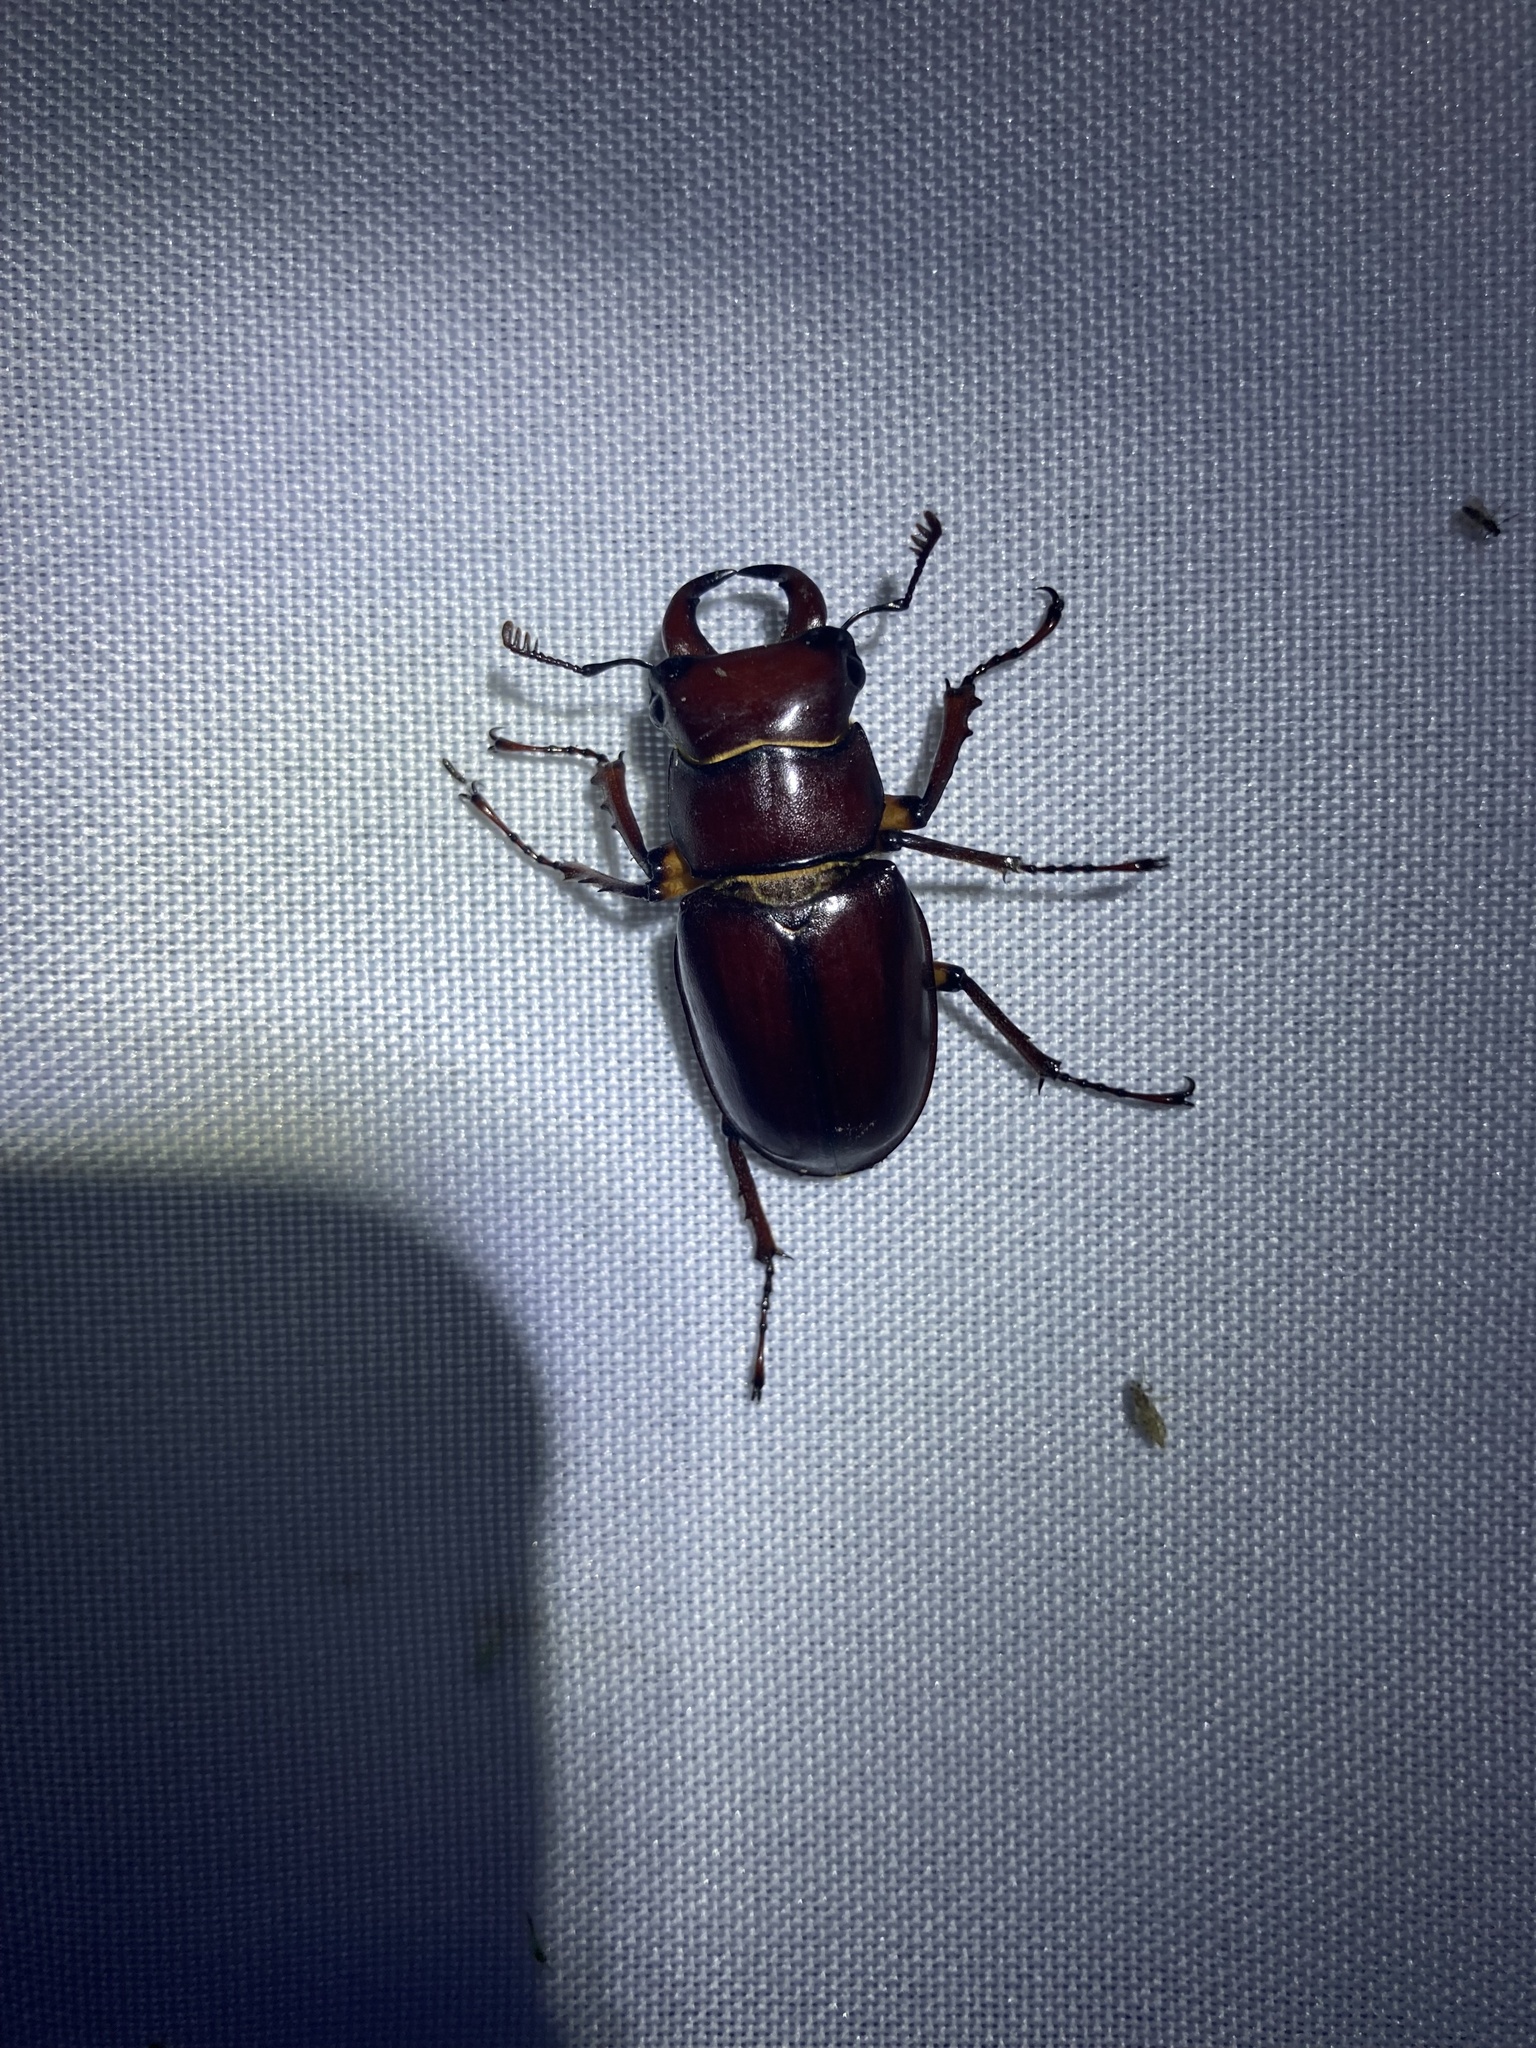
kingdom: Animalia
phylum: Arthropoda
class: Insecta
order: Coleoptera
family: Lucanidae
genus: Lucanus
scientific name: Lucanus capreolus
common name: Stag beetle
